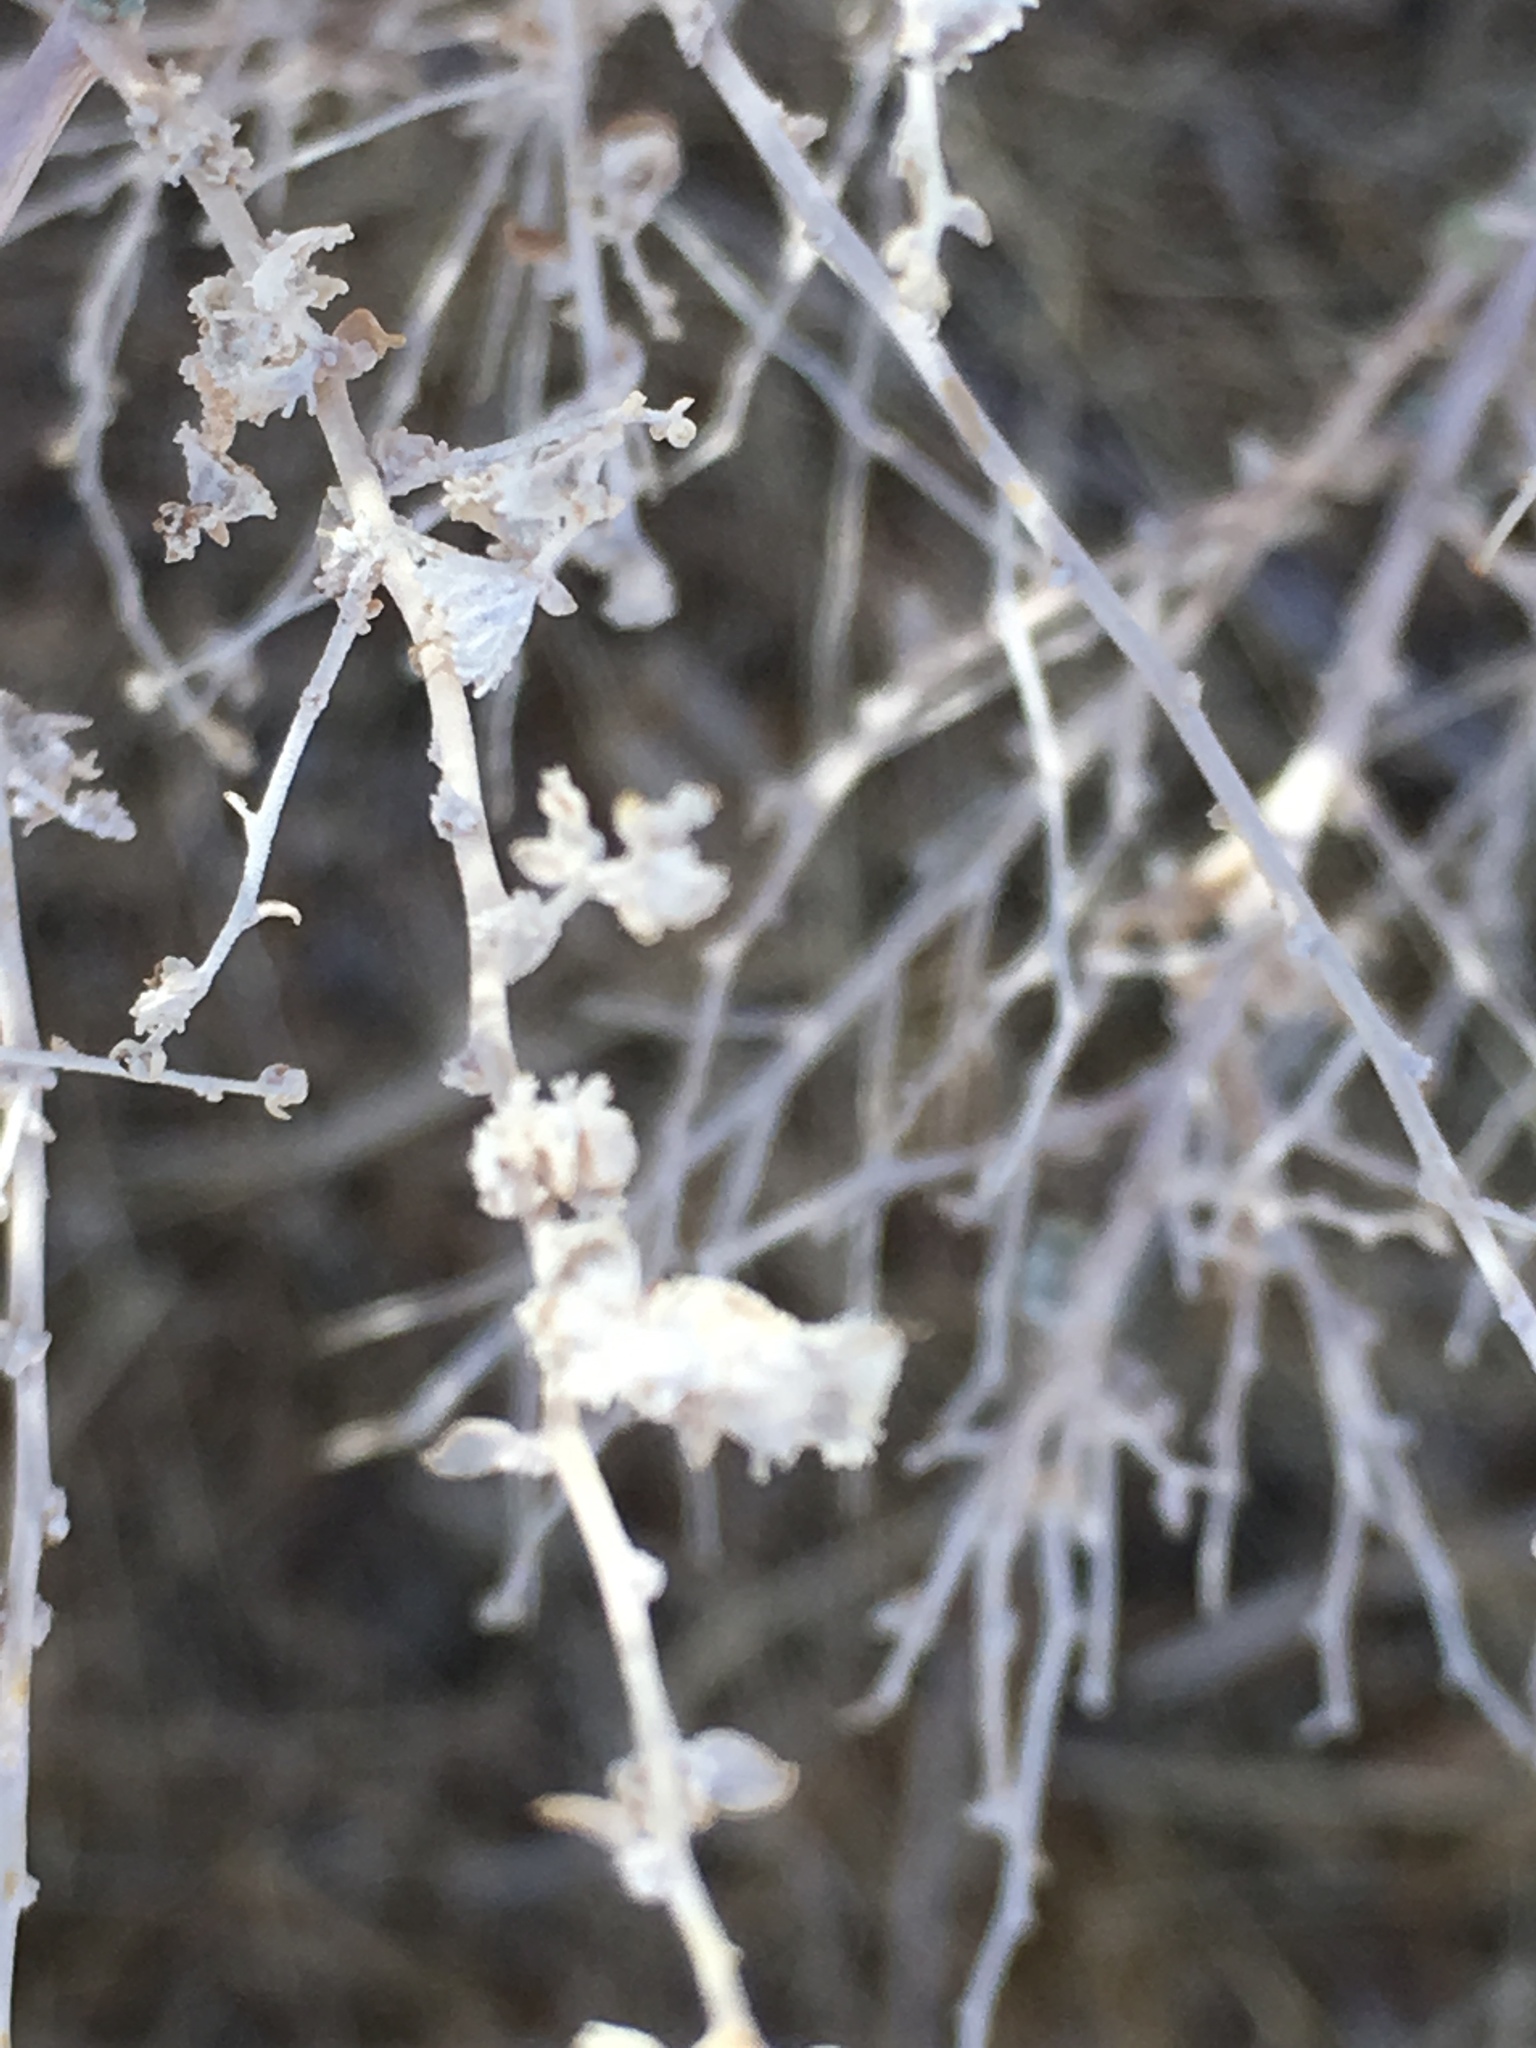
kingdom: Plantae
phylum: Tracheophyta
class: Magnoliopsida
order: Caryophyllales
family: Amaranthaceae
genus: Atriplex
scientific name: Atriplex polycarpa
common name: Desert saltbush
